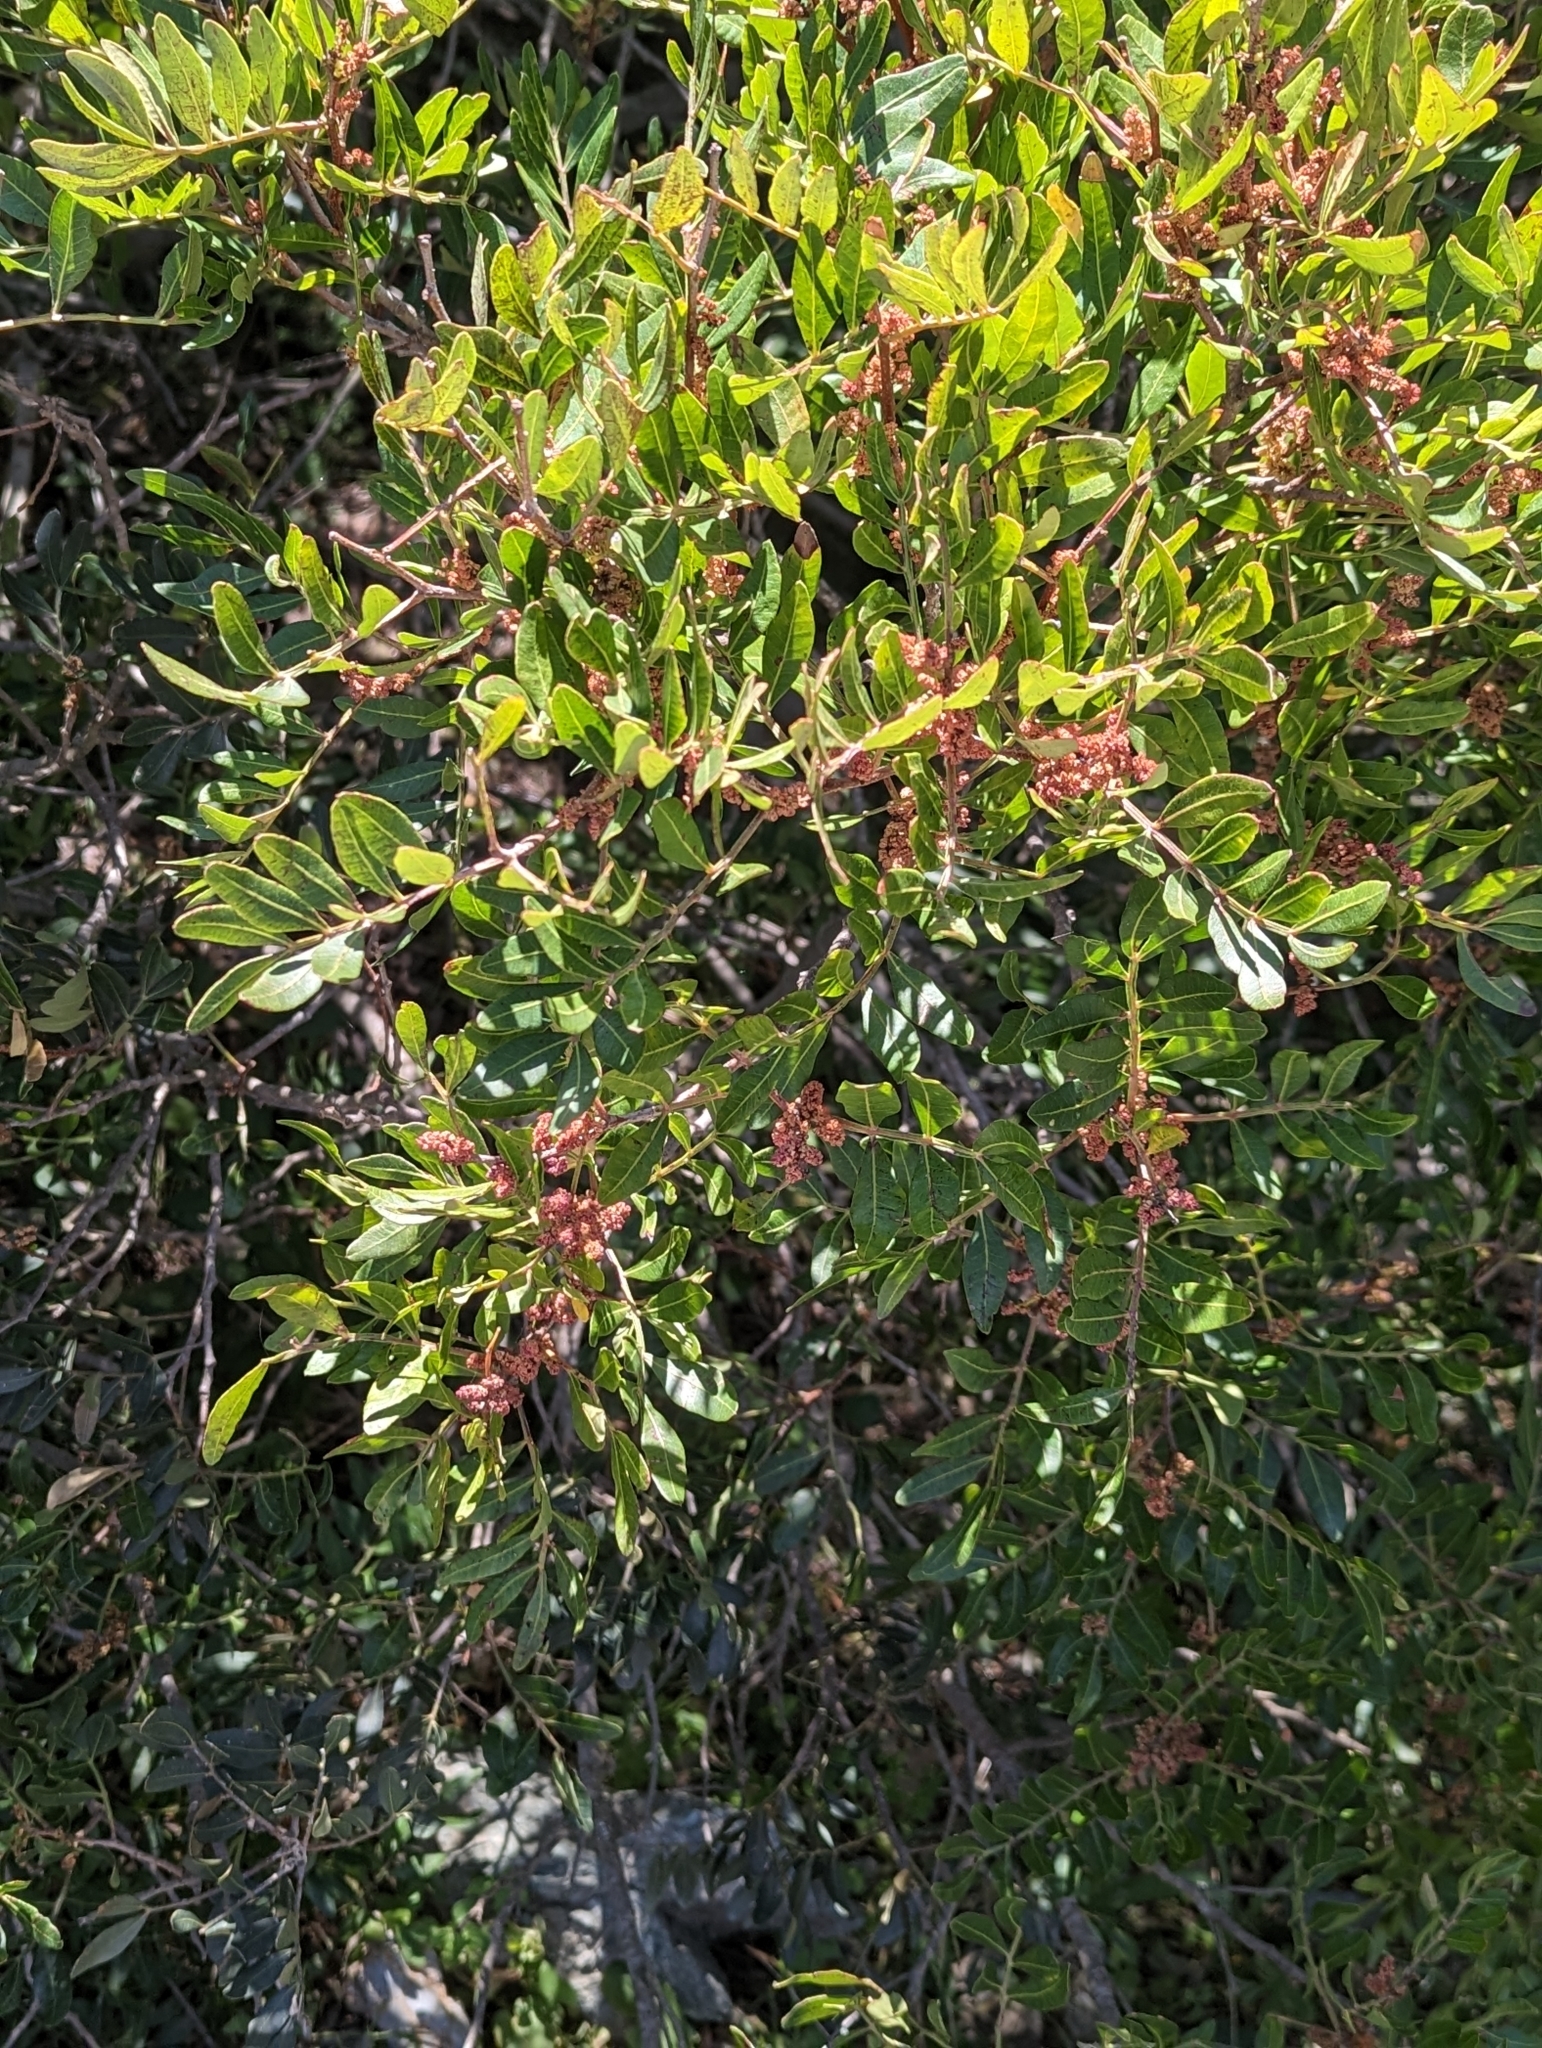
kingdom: Plantae
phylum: Tracheophyta
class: Magnoliopsida
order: Sapindales
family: Anacardiaceae
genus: Pistacia
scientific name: Pistacia lentiscus
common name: Lentisk
